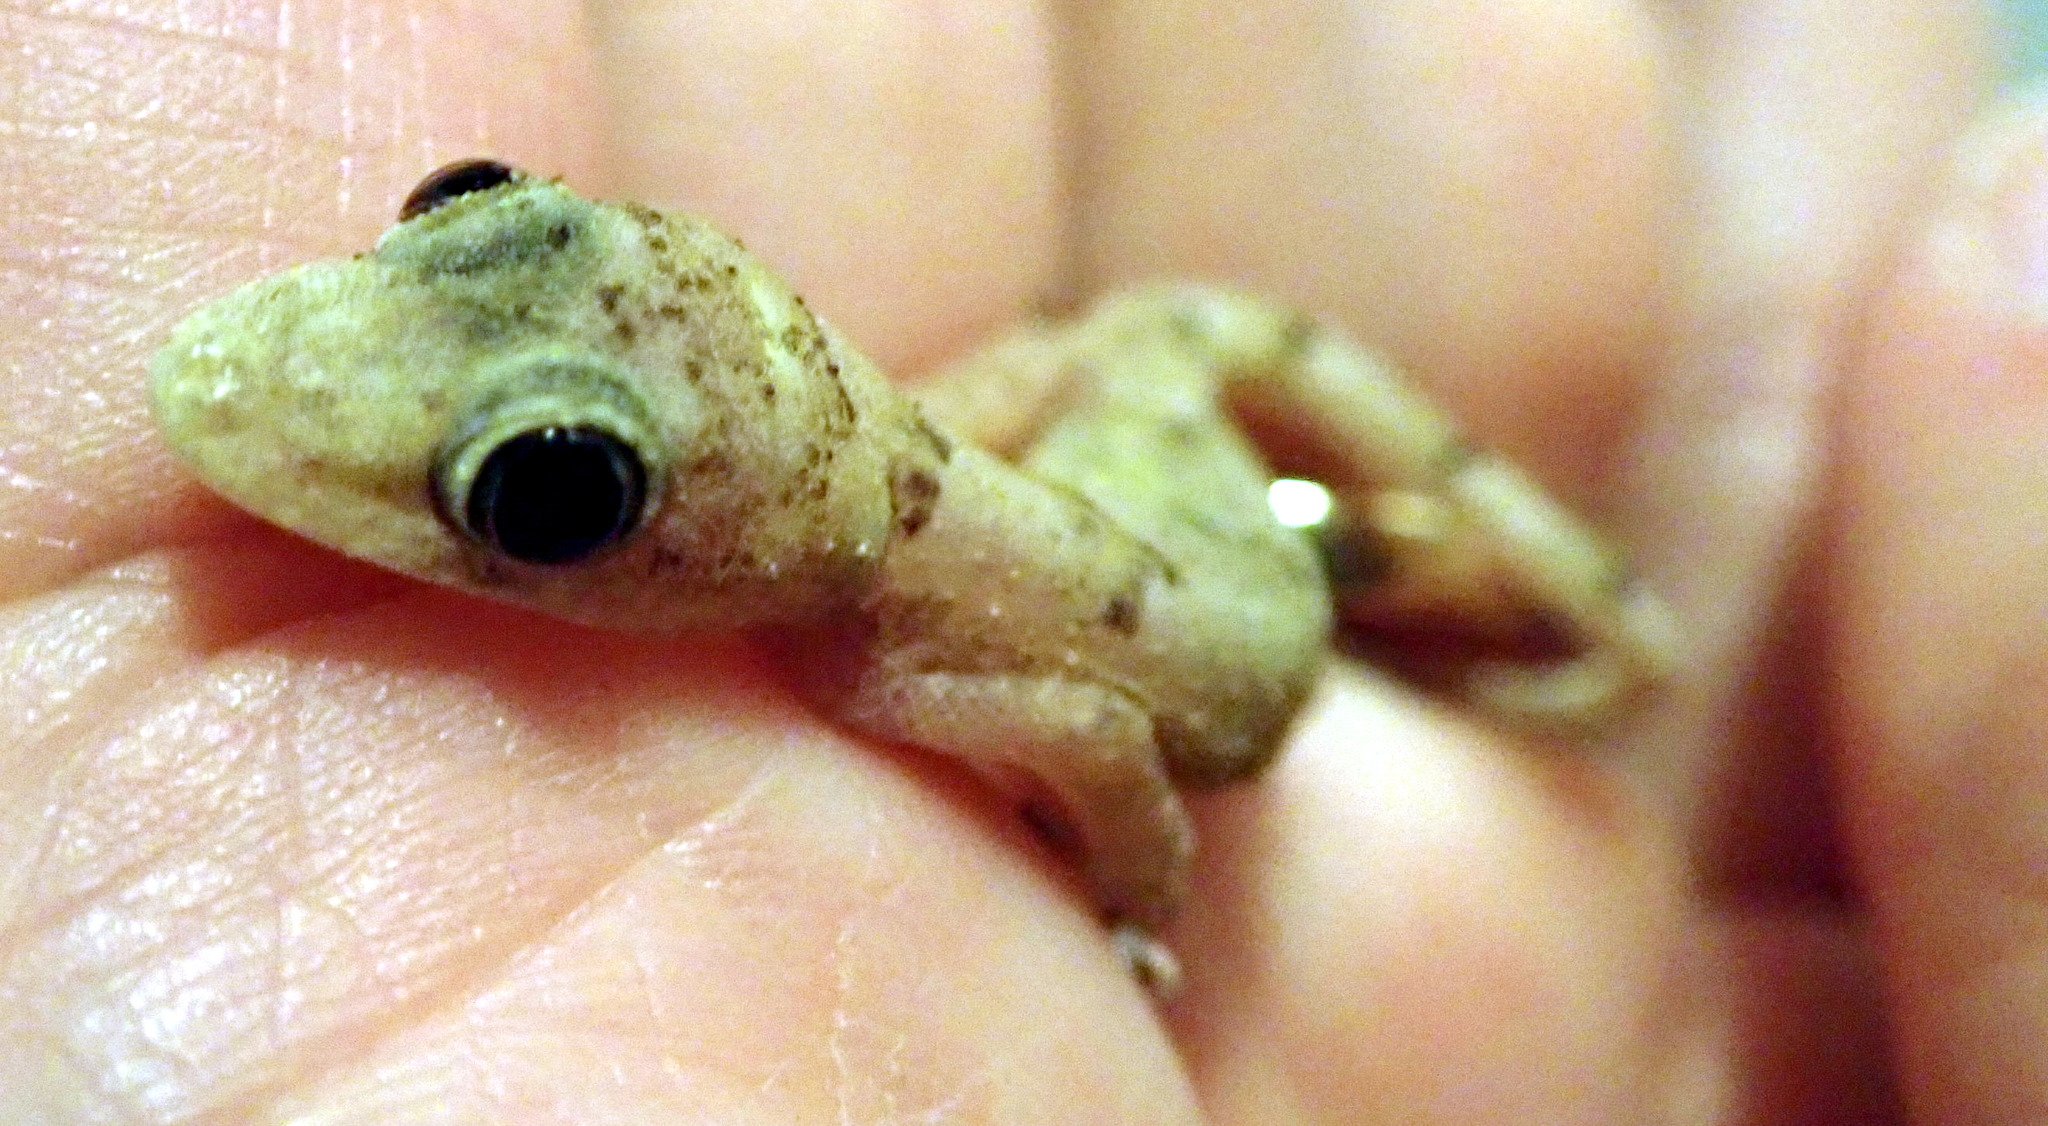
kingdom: Animalia
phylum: Chordata
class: Squamata
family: Gekkonidae
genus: Hemidactylus
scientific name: Hemidactylus mabouia
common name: House gecko
